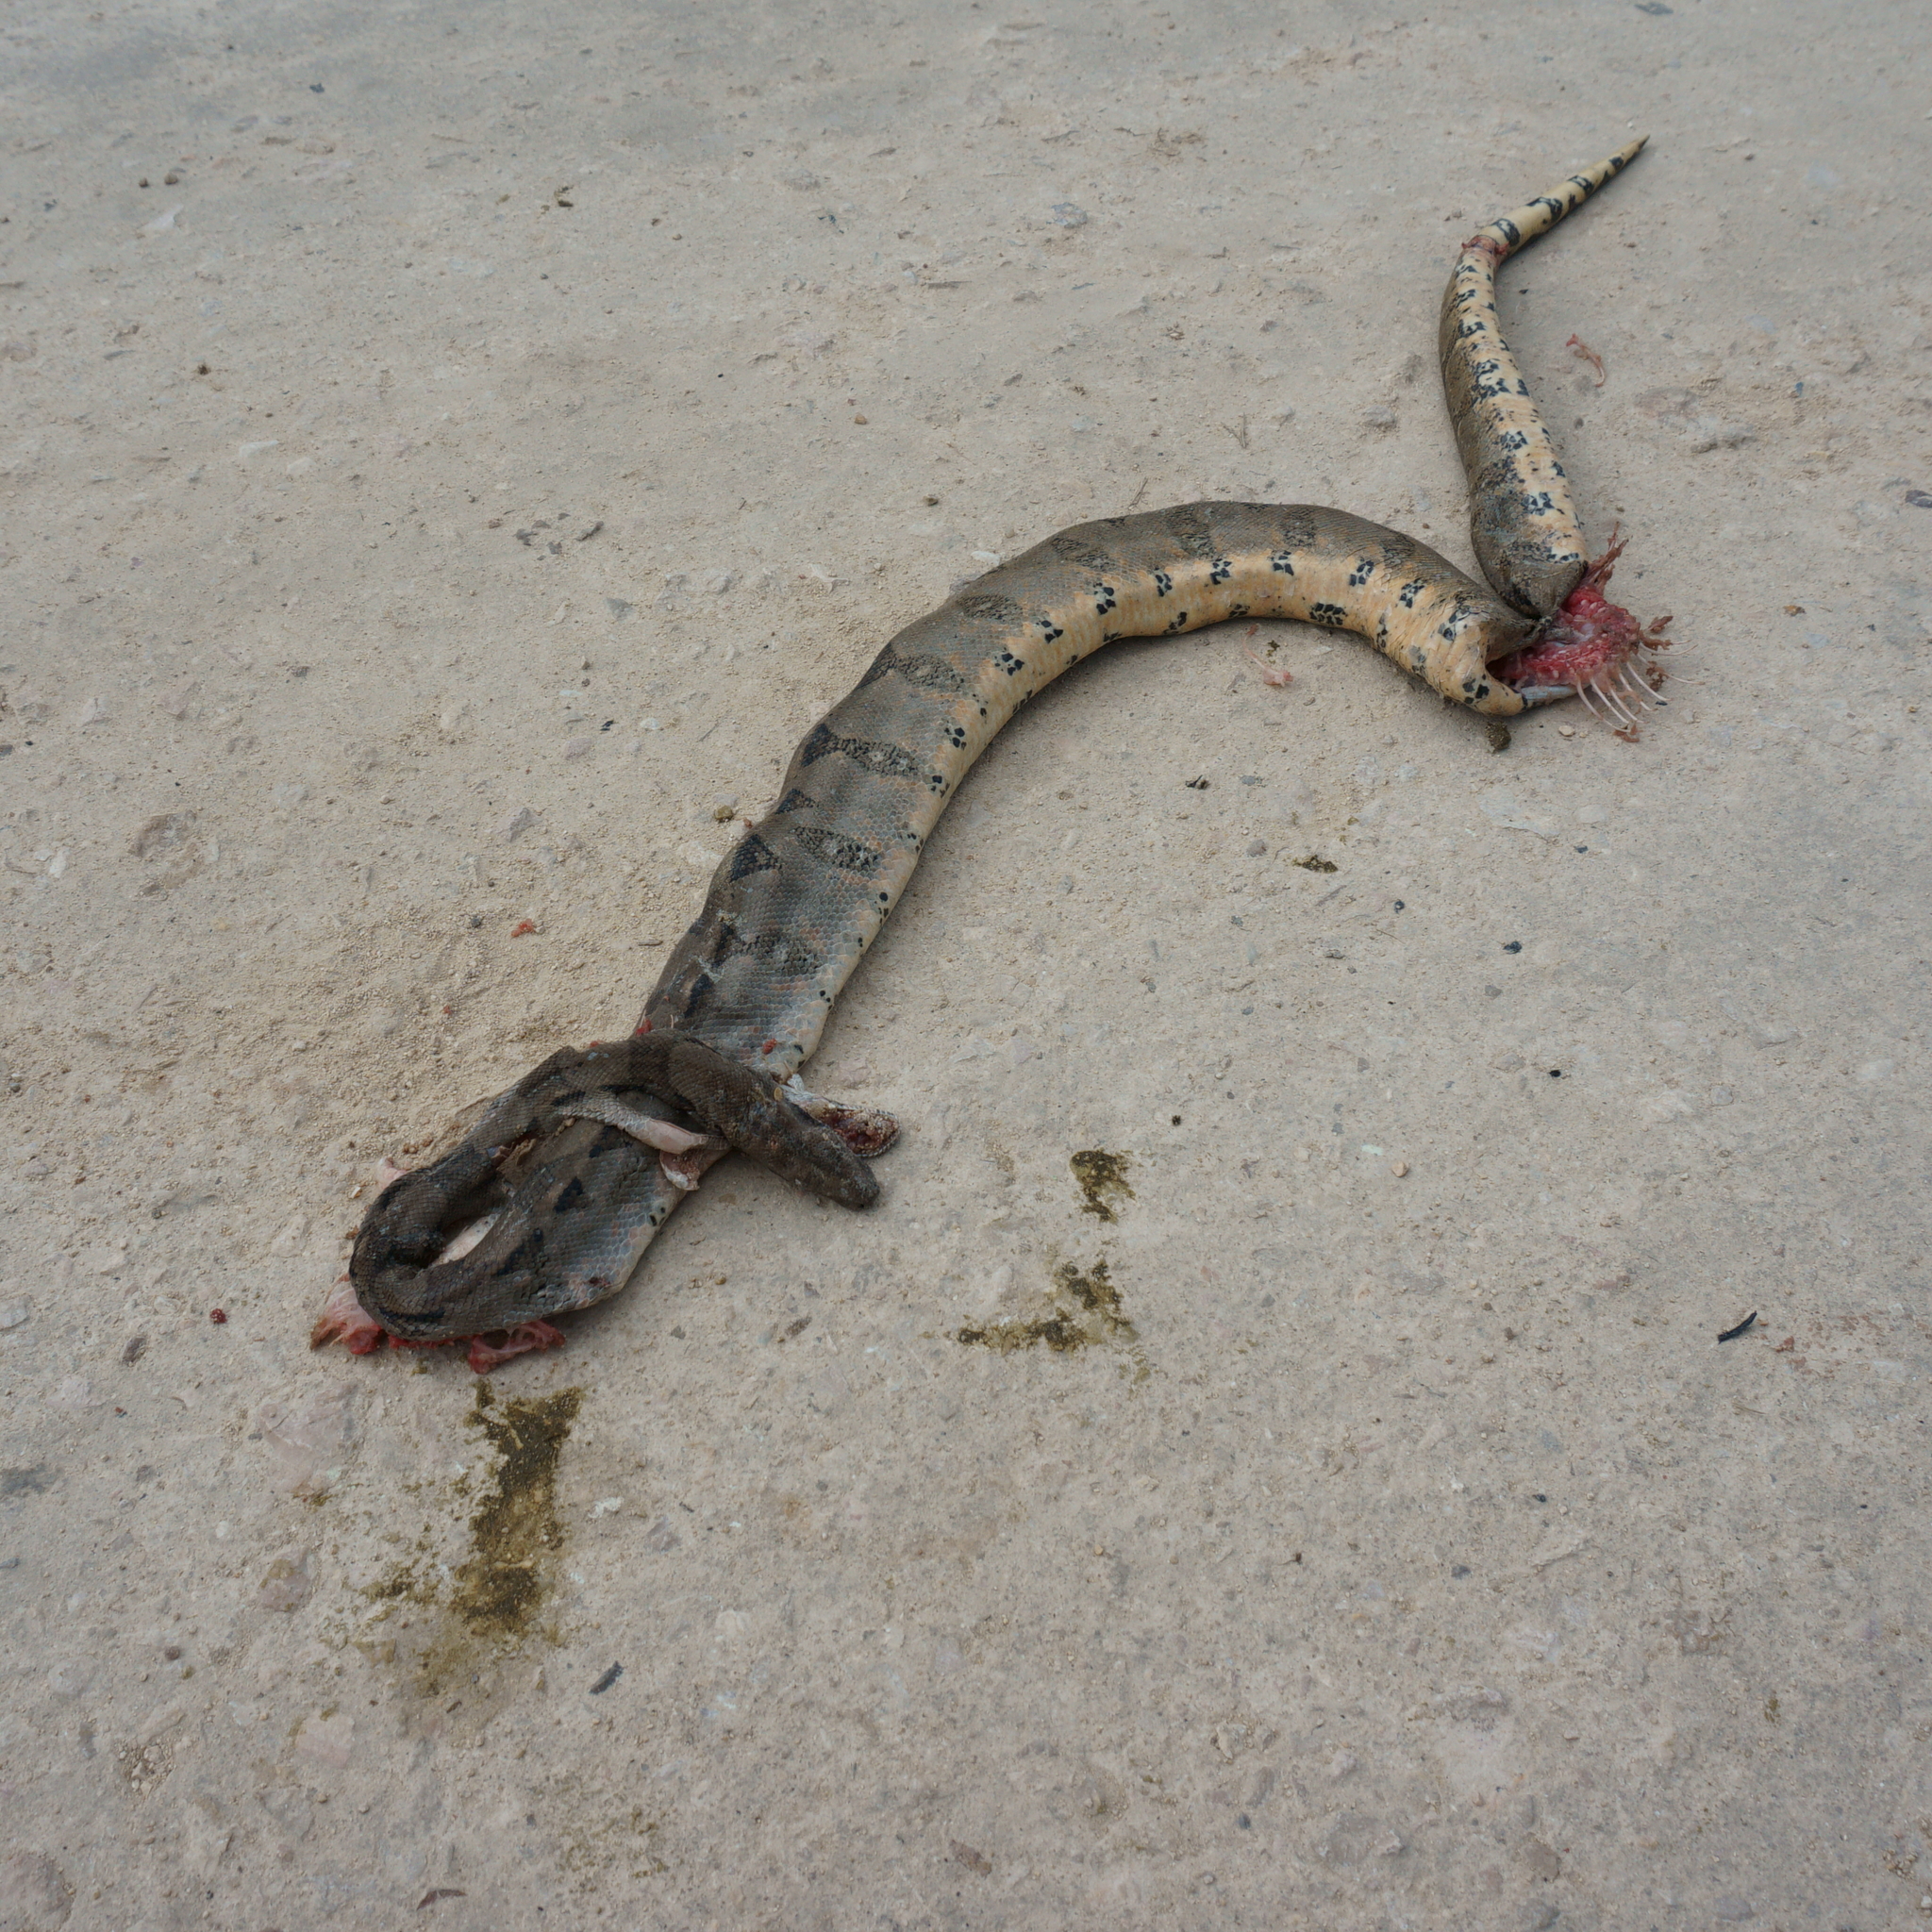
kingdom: Animalia
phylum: Chordata
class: Squamata
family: Boidae
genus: Boa
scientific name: Boa imperator
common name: Central american boa
